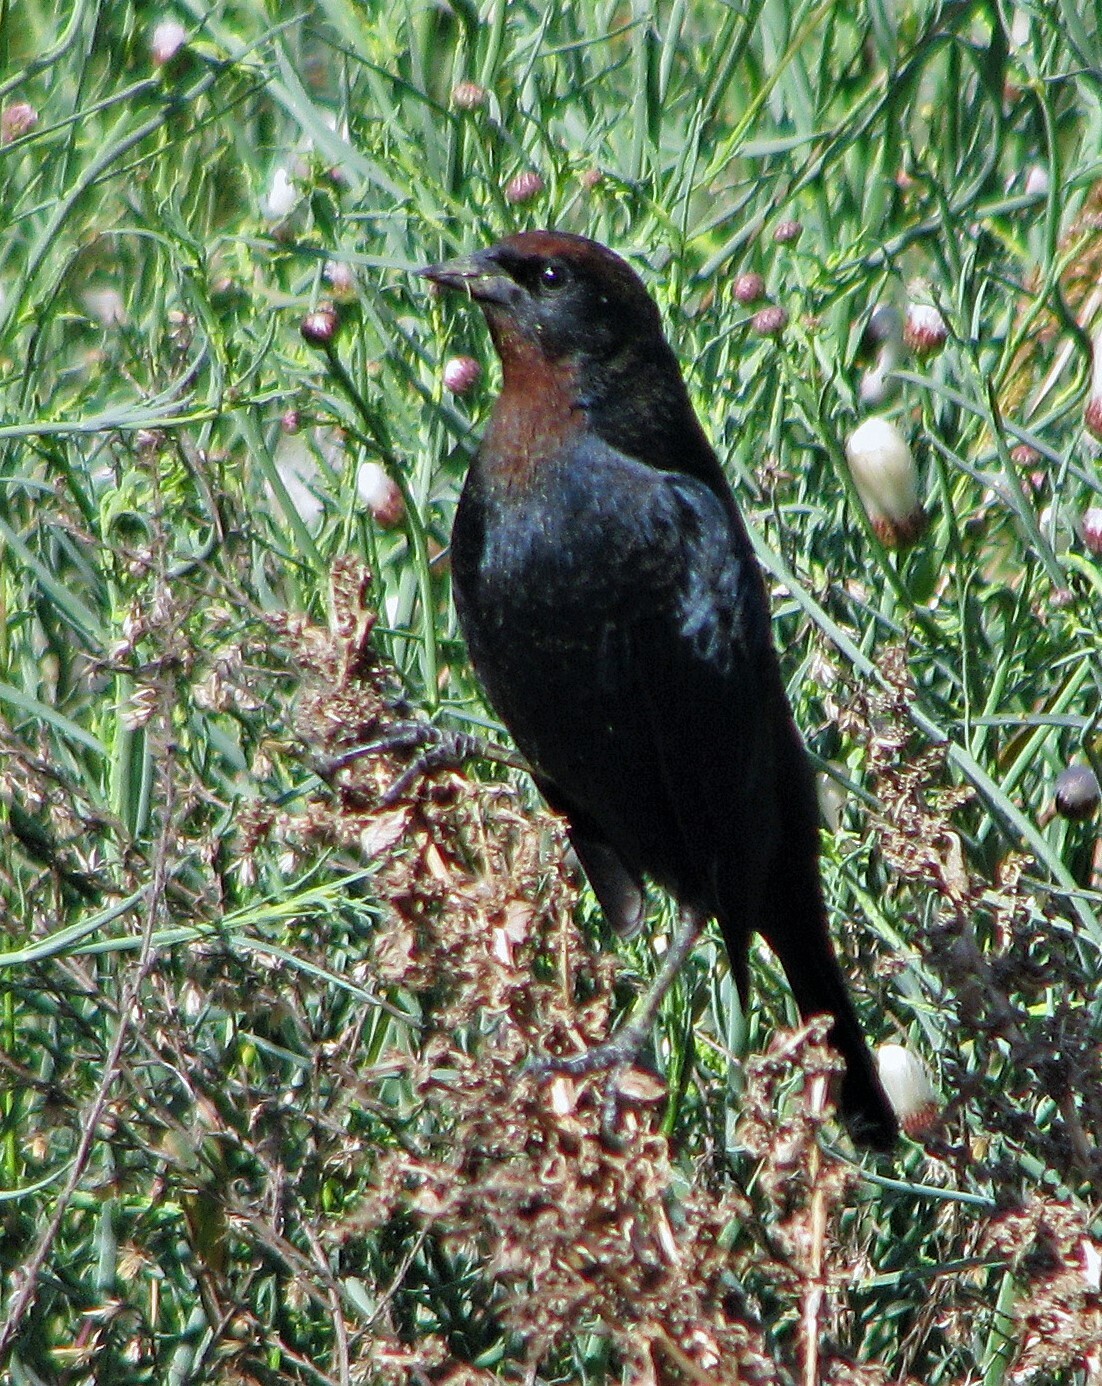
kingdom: Animalia
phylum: Chordata
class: Aves
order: Passeriformes
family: Icteridae
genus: Chrysomus
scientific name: Chrysomus ruficapillus
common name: Chestnut-capped blackbird
